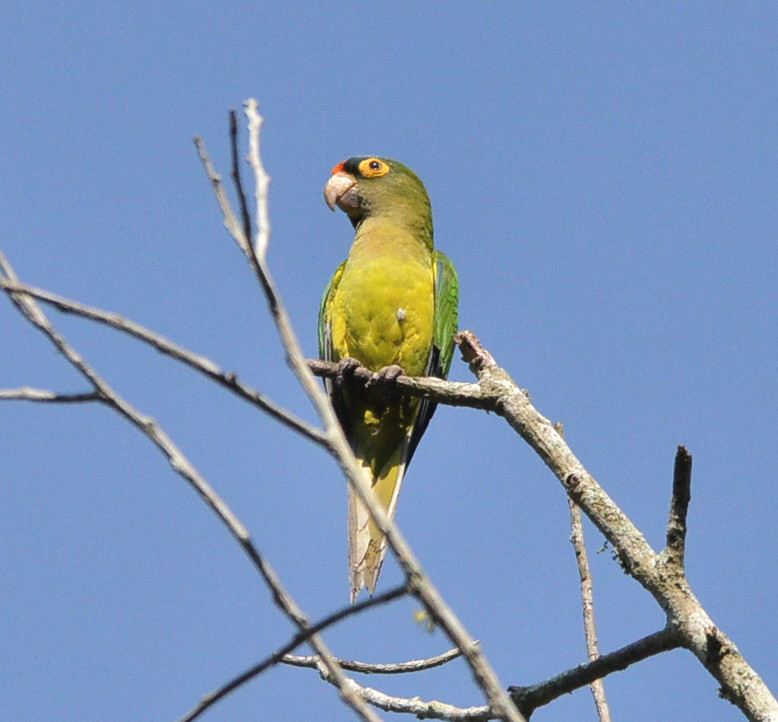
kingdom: Animalia
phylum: Chordata
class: Aves
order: Psittaciformes
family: Psittacidae
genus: Aratinga
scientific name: Aratinga canicularis
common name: Orange-fronted parakeet
